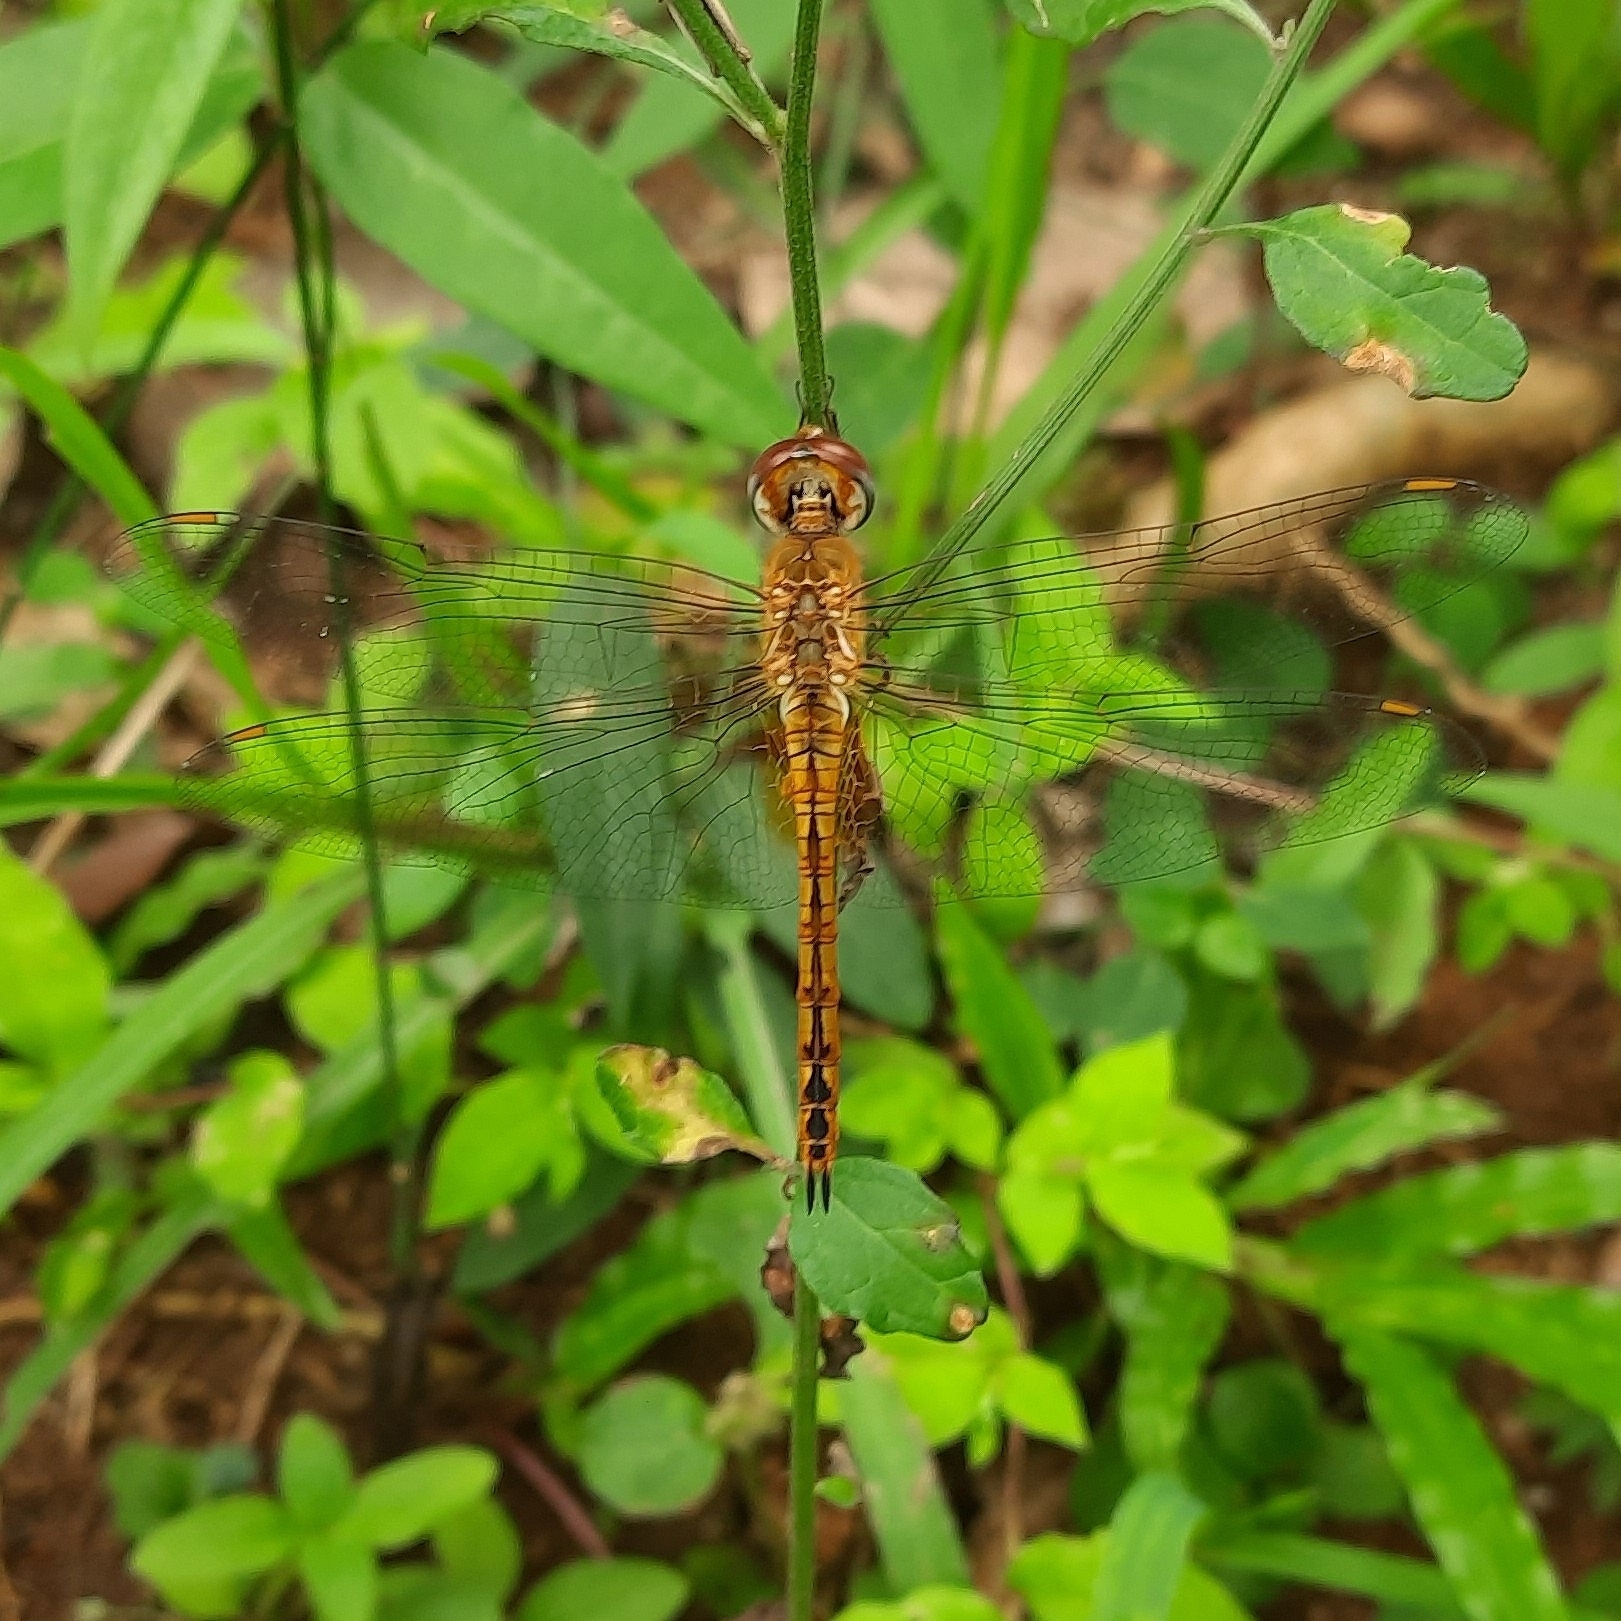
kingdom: Animalia
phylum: Arthropoda
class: Insecta
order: Odonata
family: Libellulidae
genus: Pantala
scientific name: Pantala flavescens
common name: Wandering glider
